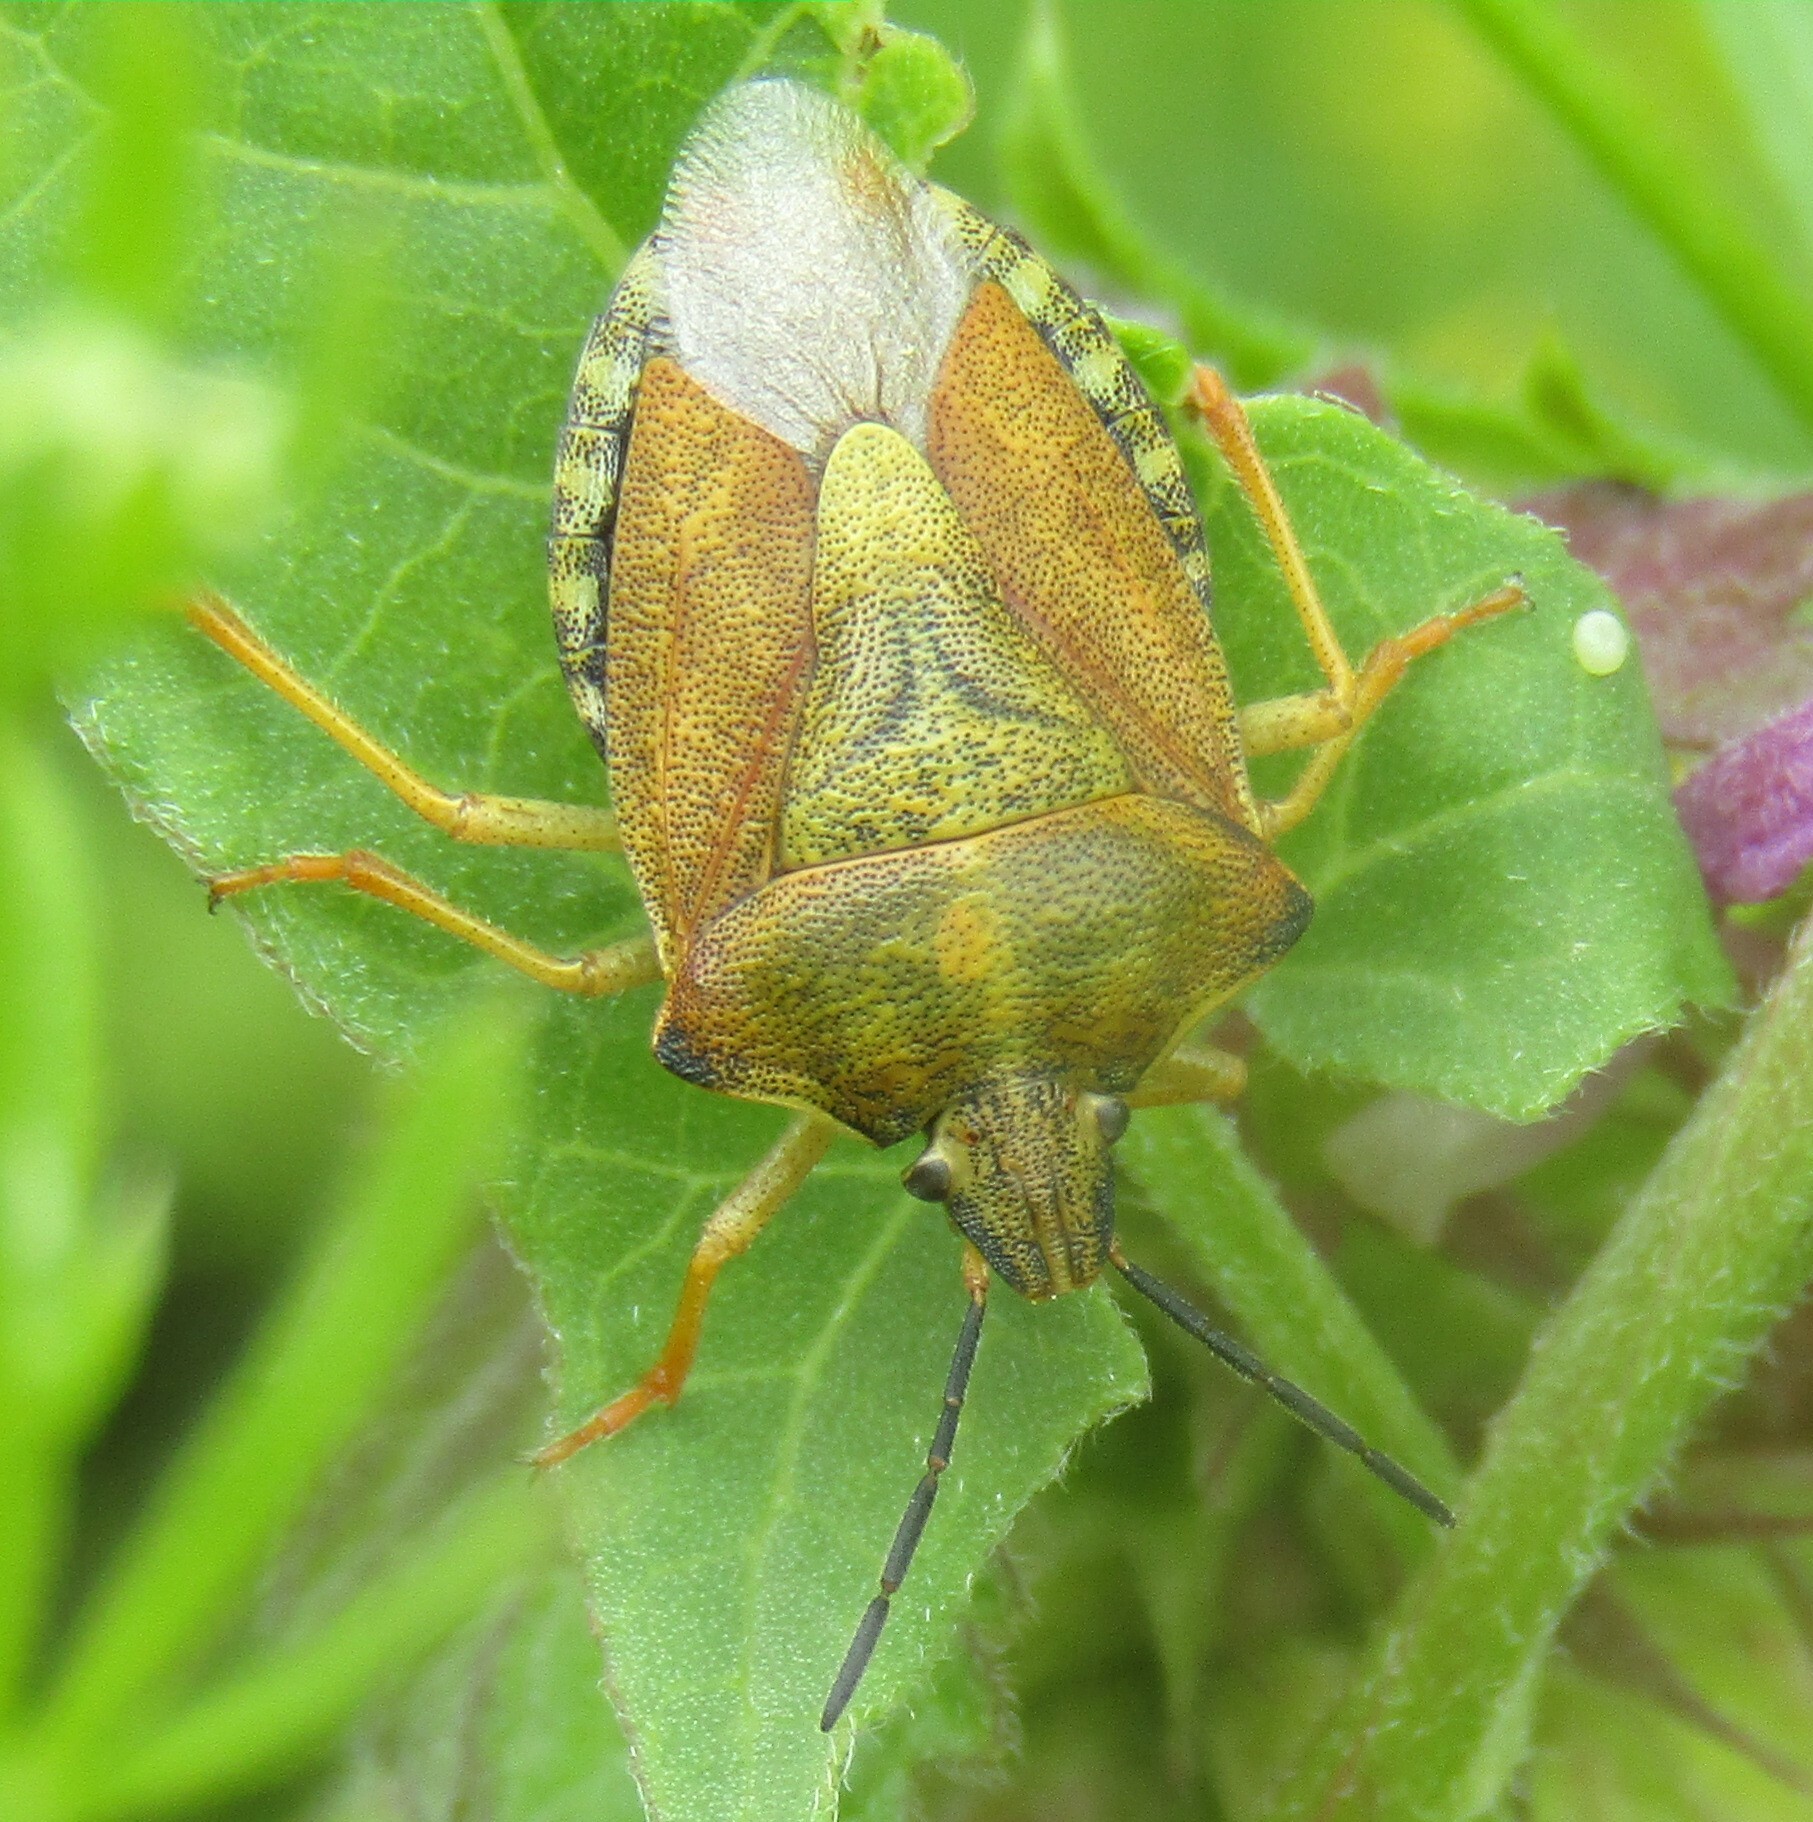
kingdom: Animalia
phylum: Arthropoda
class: Insecta
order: Hemiptera
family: Pentatomidae
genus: Carpocoris
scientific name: Carpocoris purpureipennis
